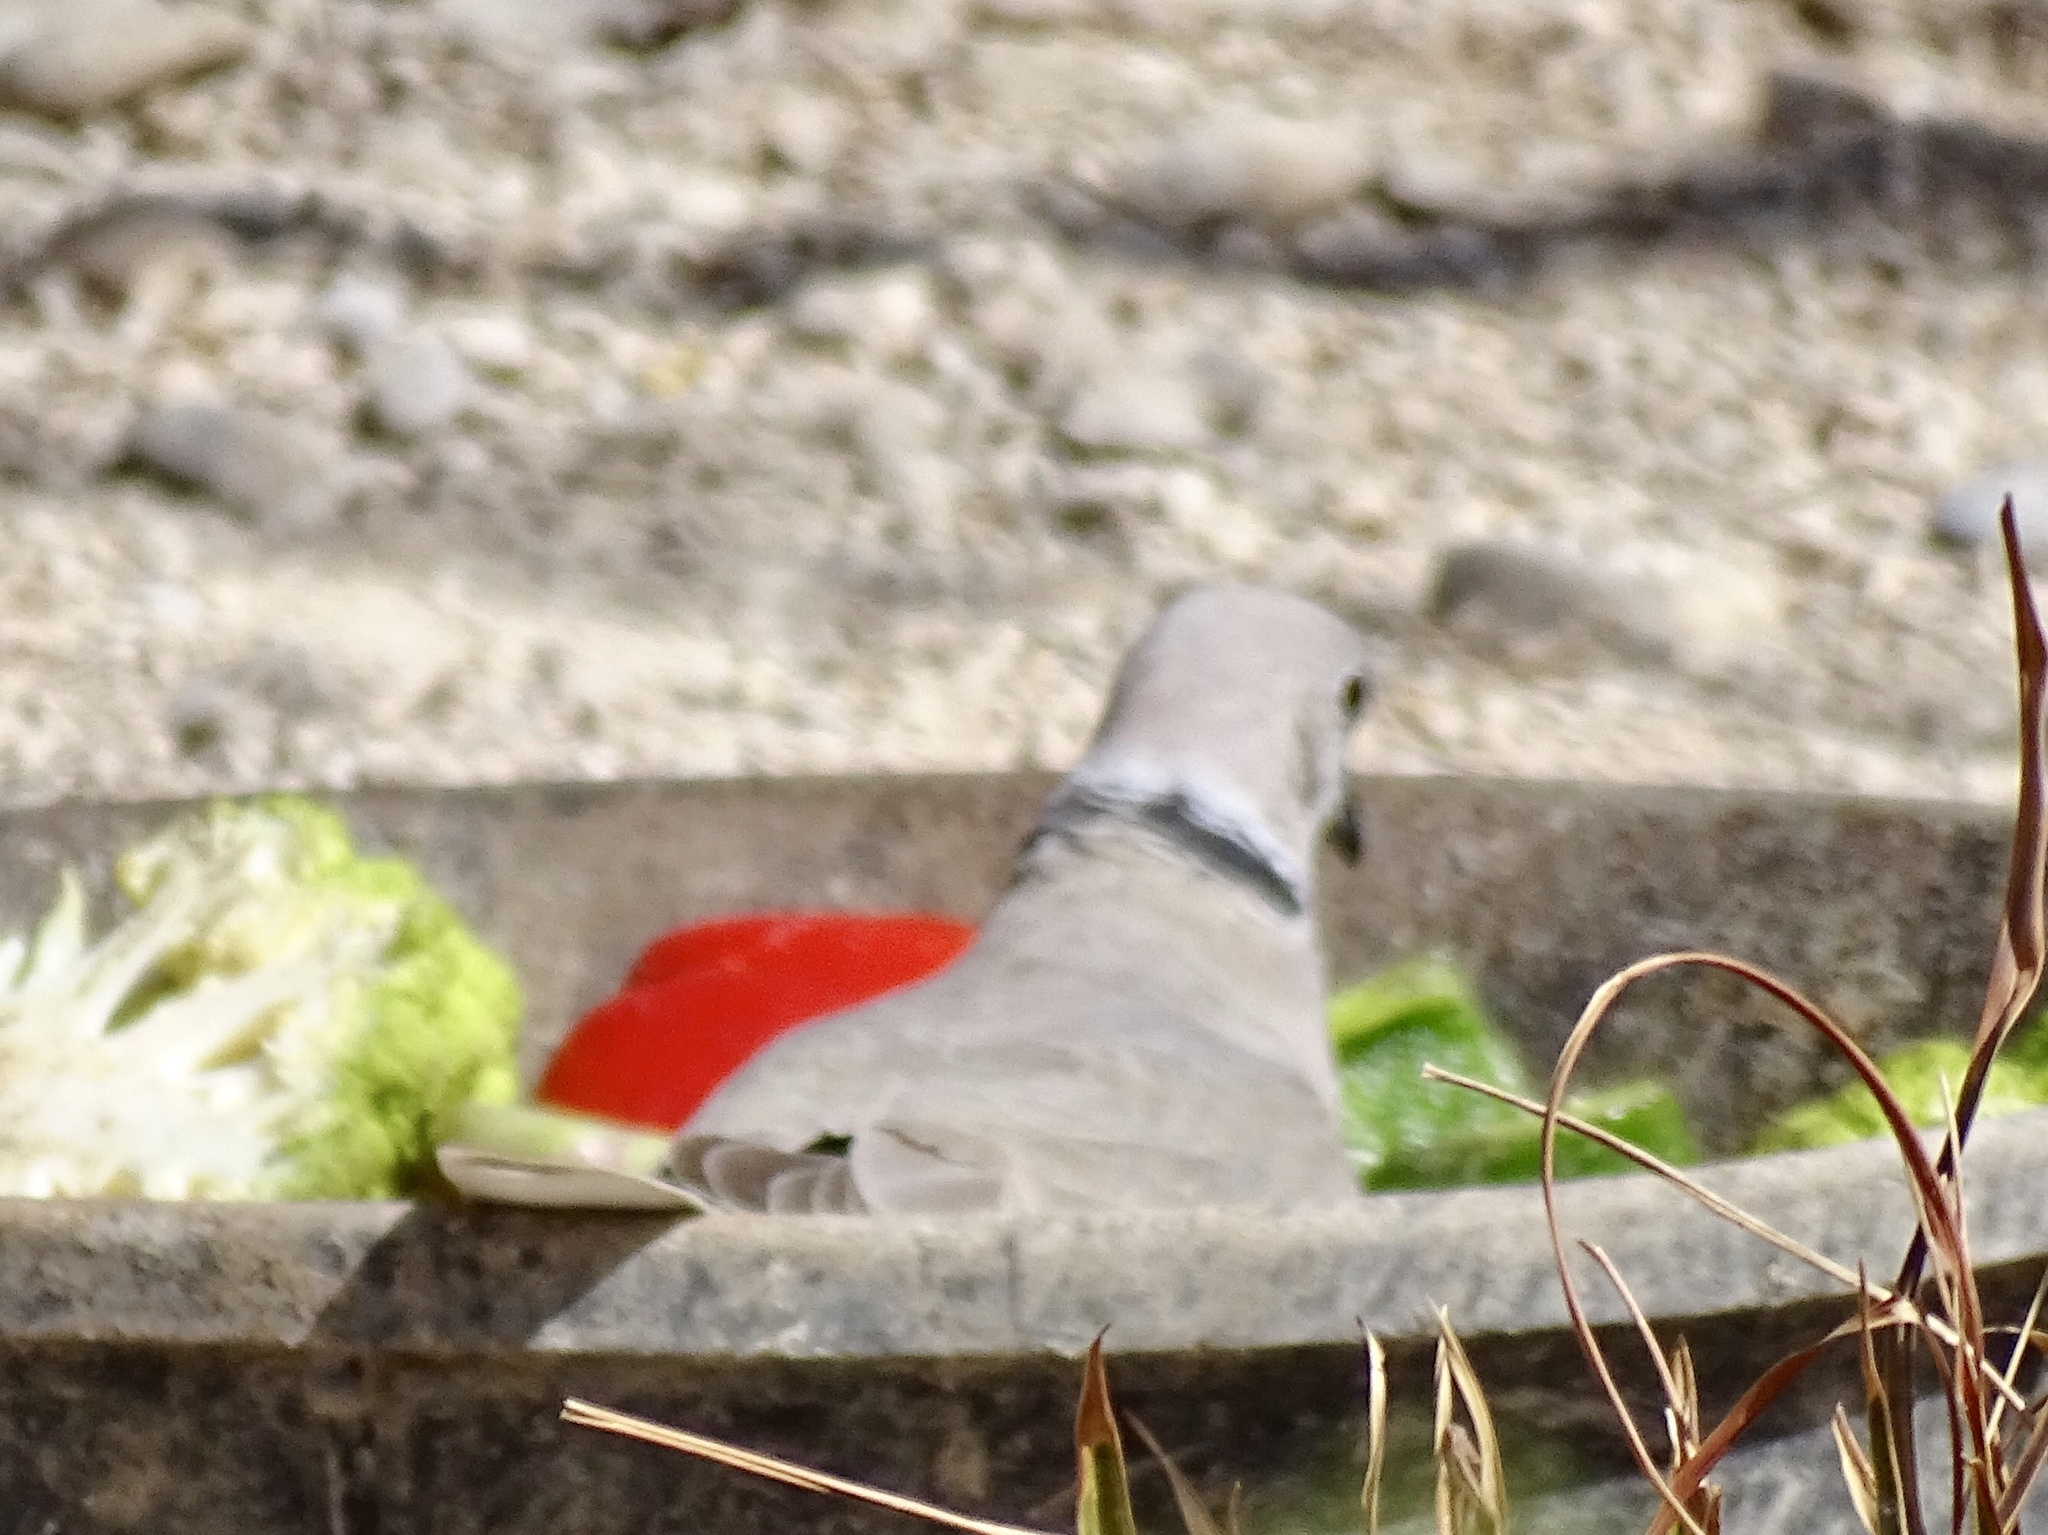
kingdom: Animalia
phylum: Chordata
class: Aves
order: Columbiformes
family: Columbidae
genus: Streptopelia
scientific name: Streptopelia decaocto
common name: Eurasian collared dove
